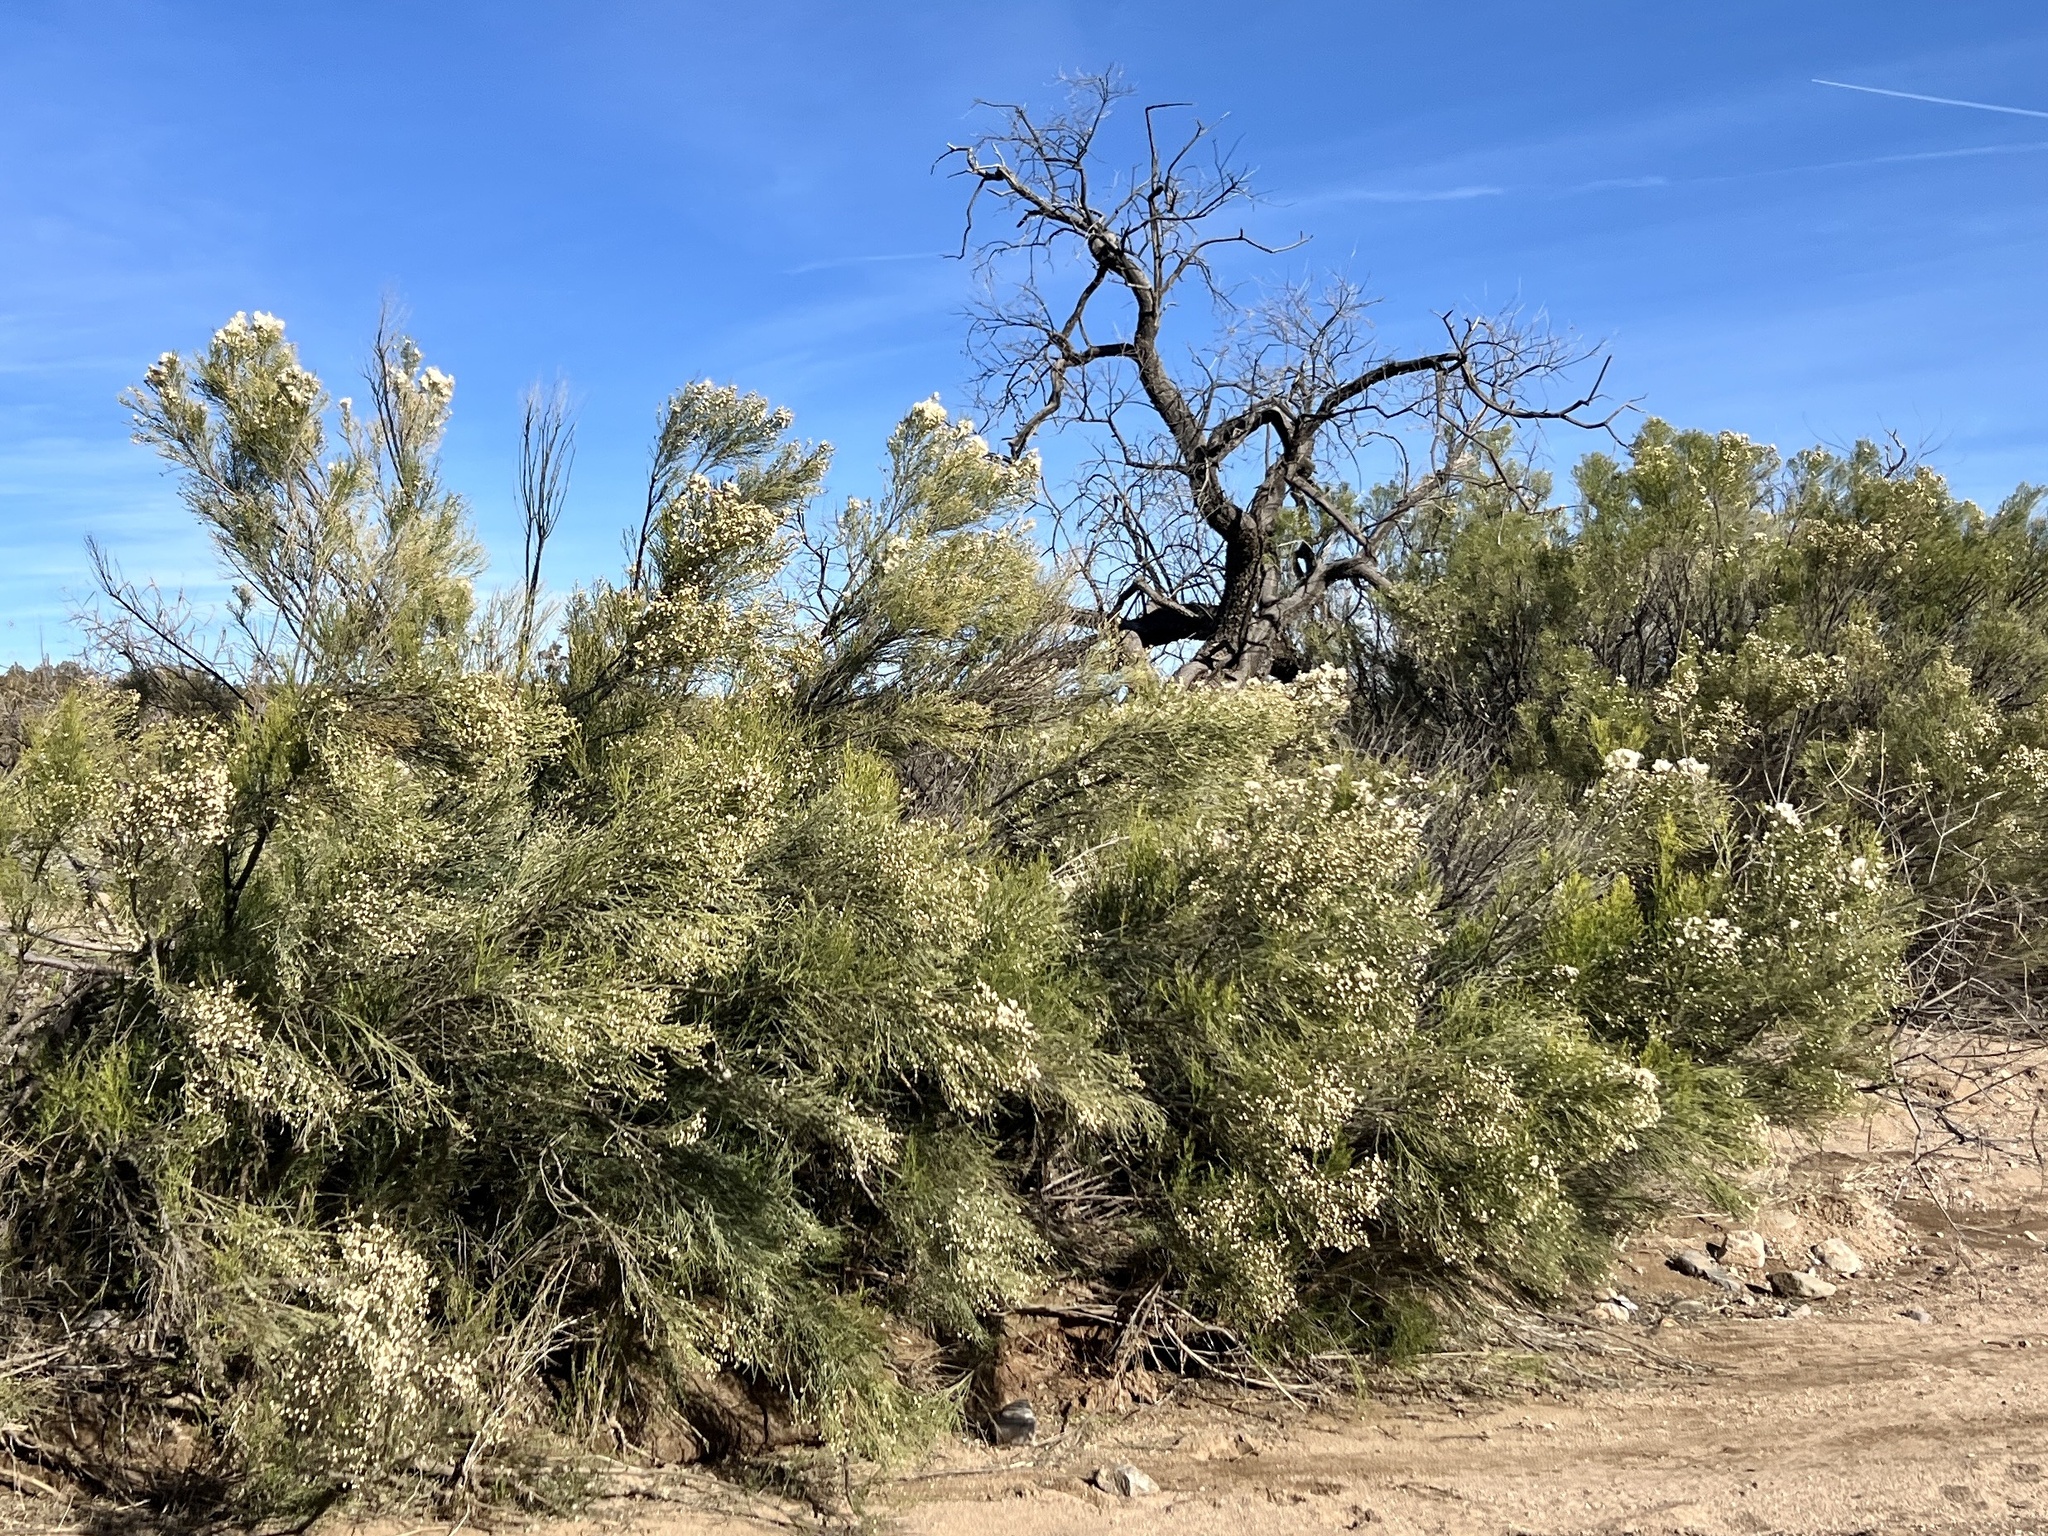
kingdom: Plantae
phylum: Tracheophyta
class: Magnoliopsida
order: Asterales
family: Asteraceae
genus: Baccharis
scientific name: Baccharis sarothroides
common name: Desert-broom
